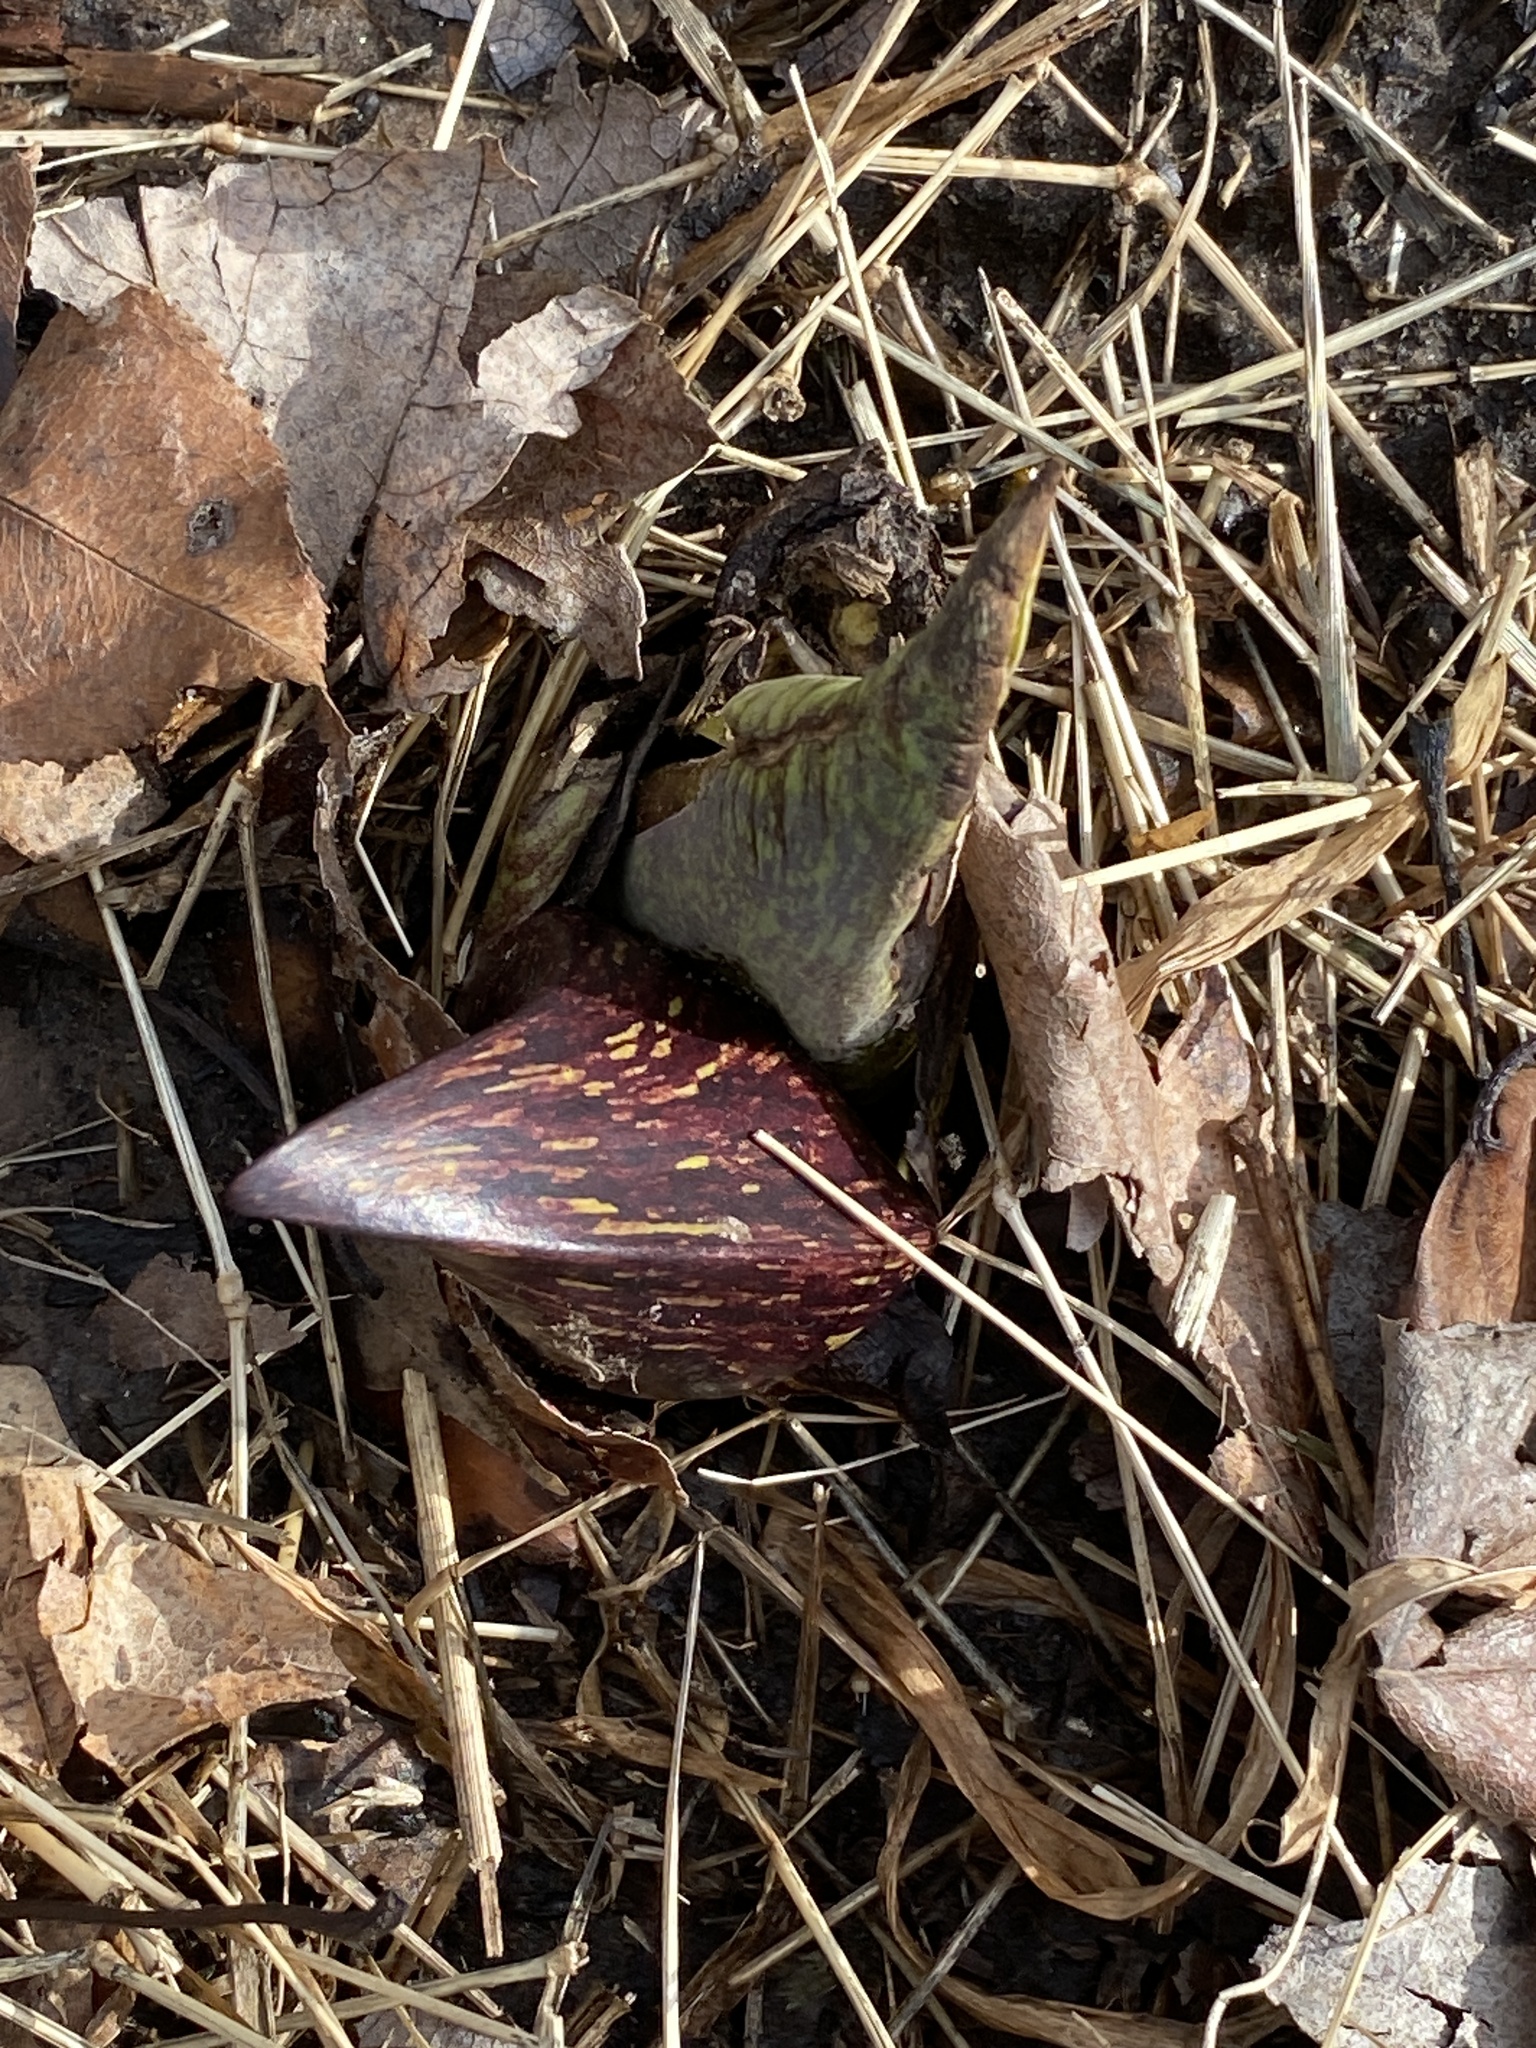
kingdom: Plantae
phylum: Tracheophyta
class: Liliopsida
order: Alismatales
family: Araceae
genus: Symplocarpus
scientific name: Symplocarpus foetidus
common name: Eastern skunk cabbage
